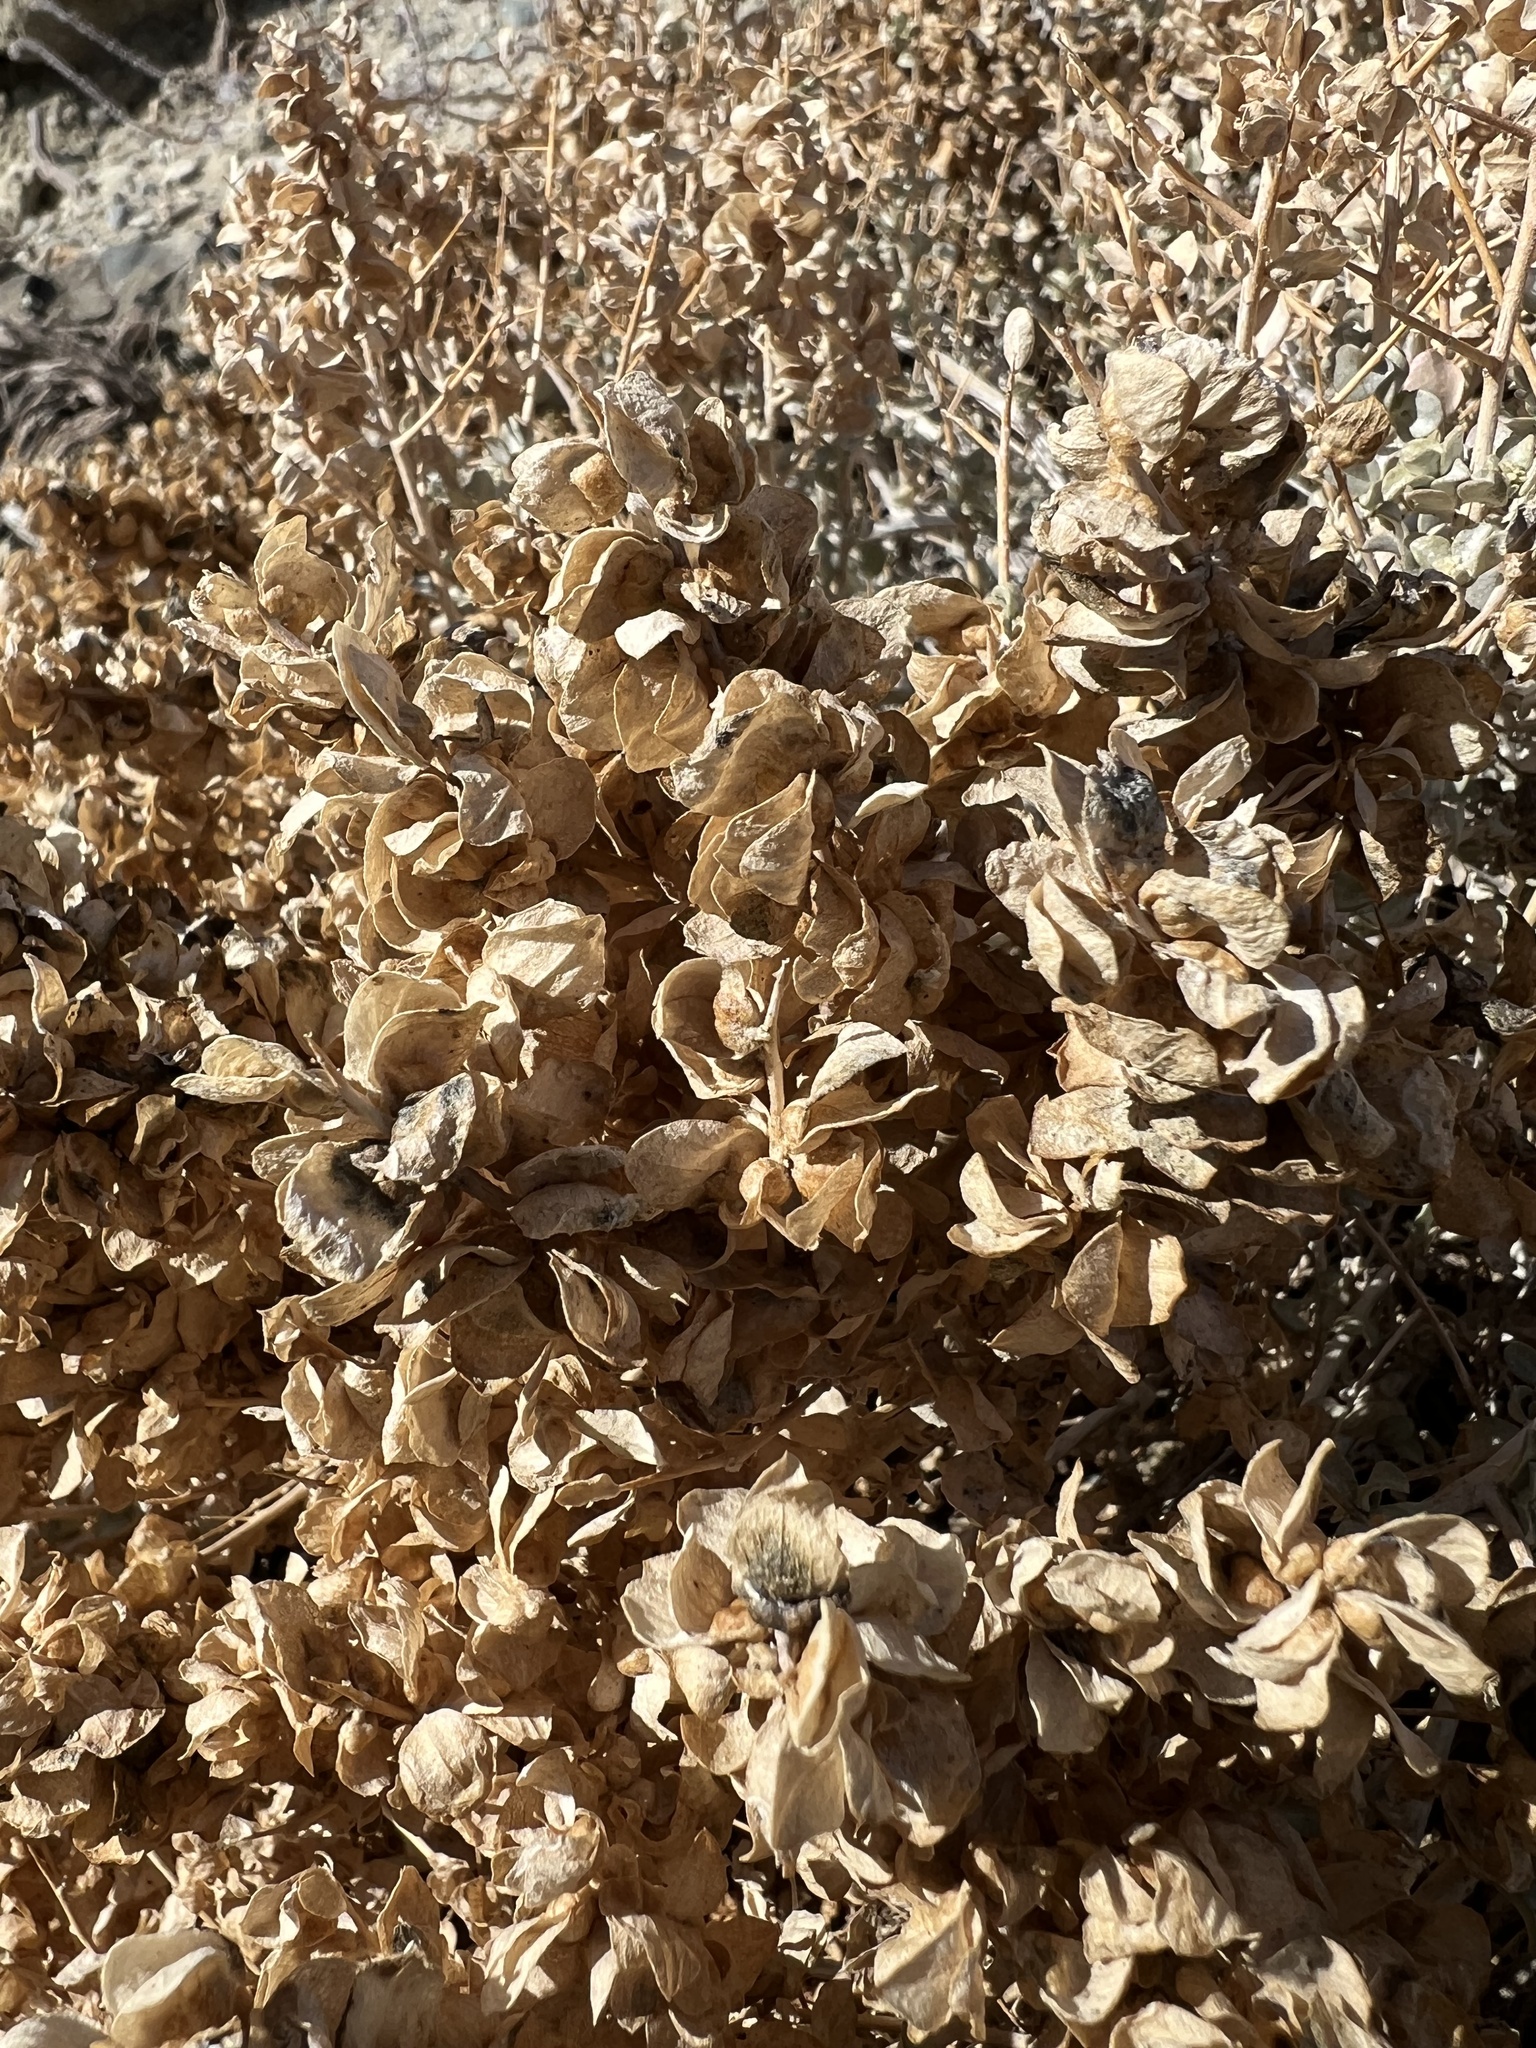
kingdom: Plantae
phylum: Tracheophyta
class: Magnoliopsida
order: Caryophyllales
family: Amaranthaceae
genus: Atriplex
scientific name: Atriplex confertifolia
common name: Shadscale
